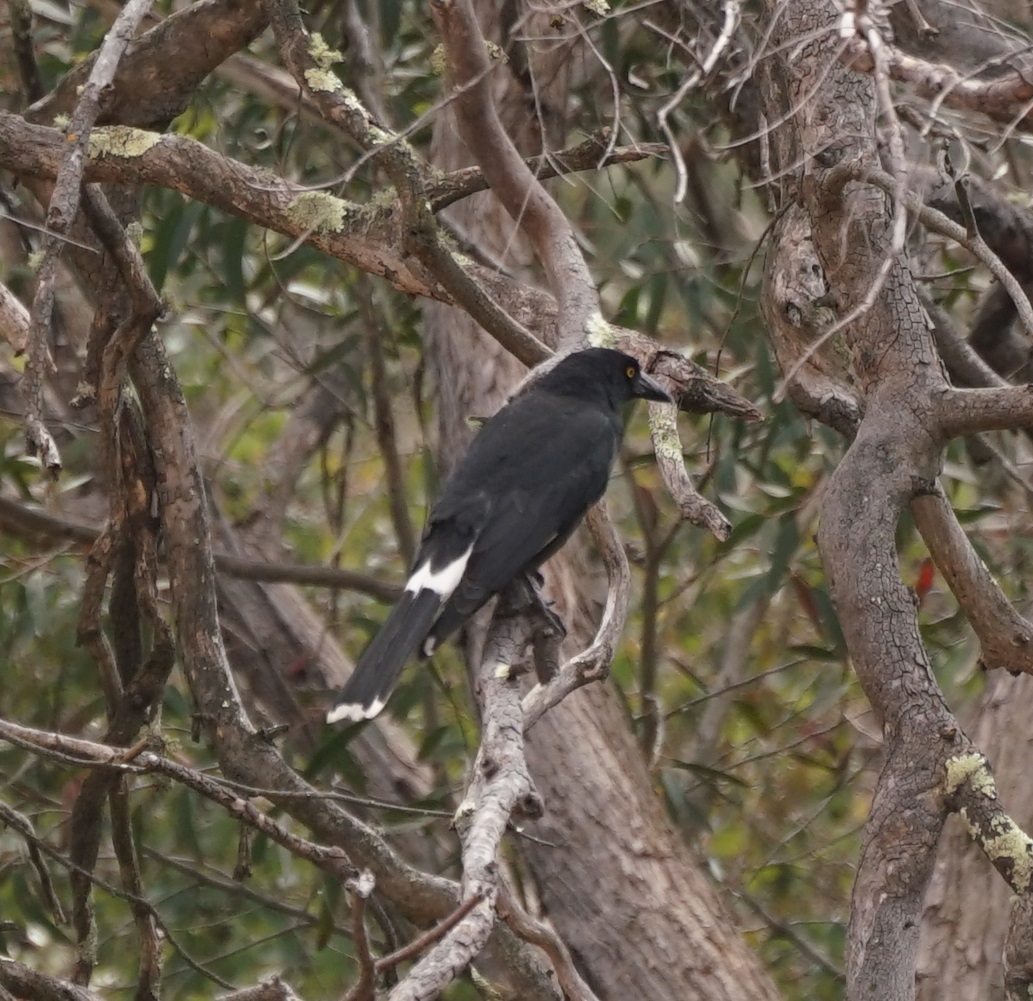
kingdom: Animalia
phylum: Chordata
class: Aves
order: Passeriformes
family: Cracticidae
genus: Strepera
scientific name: Strepera graculina
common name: Pied currawong
